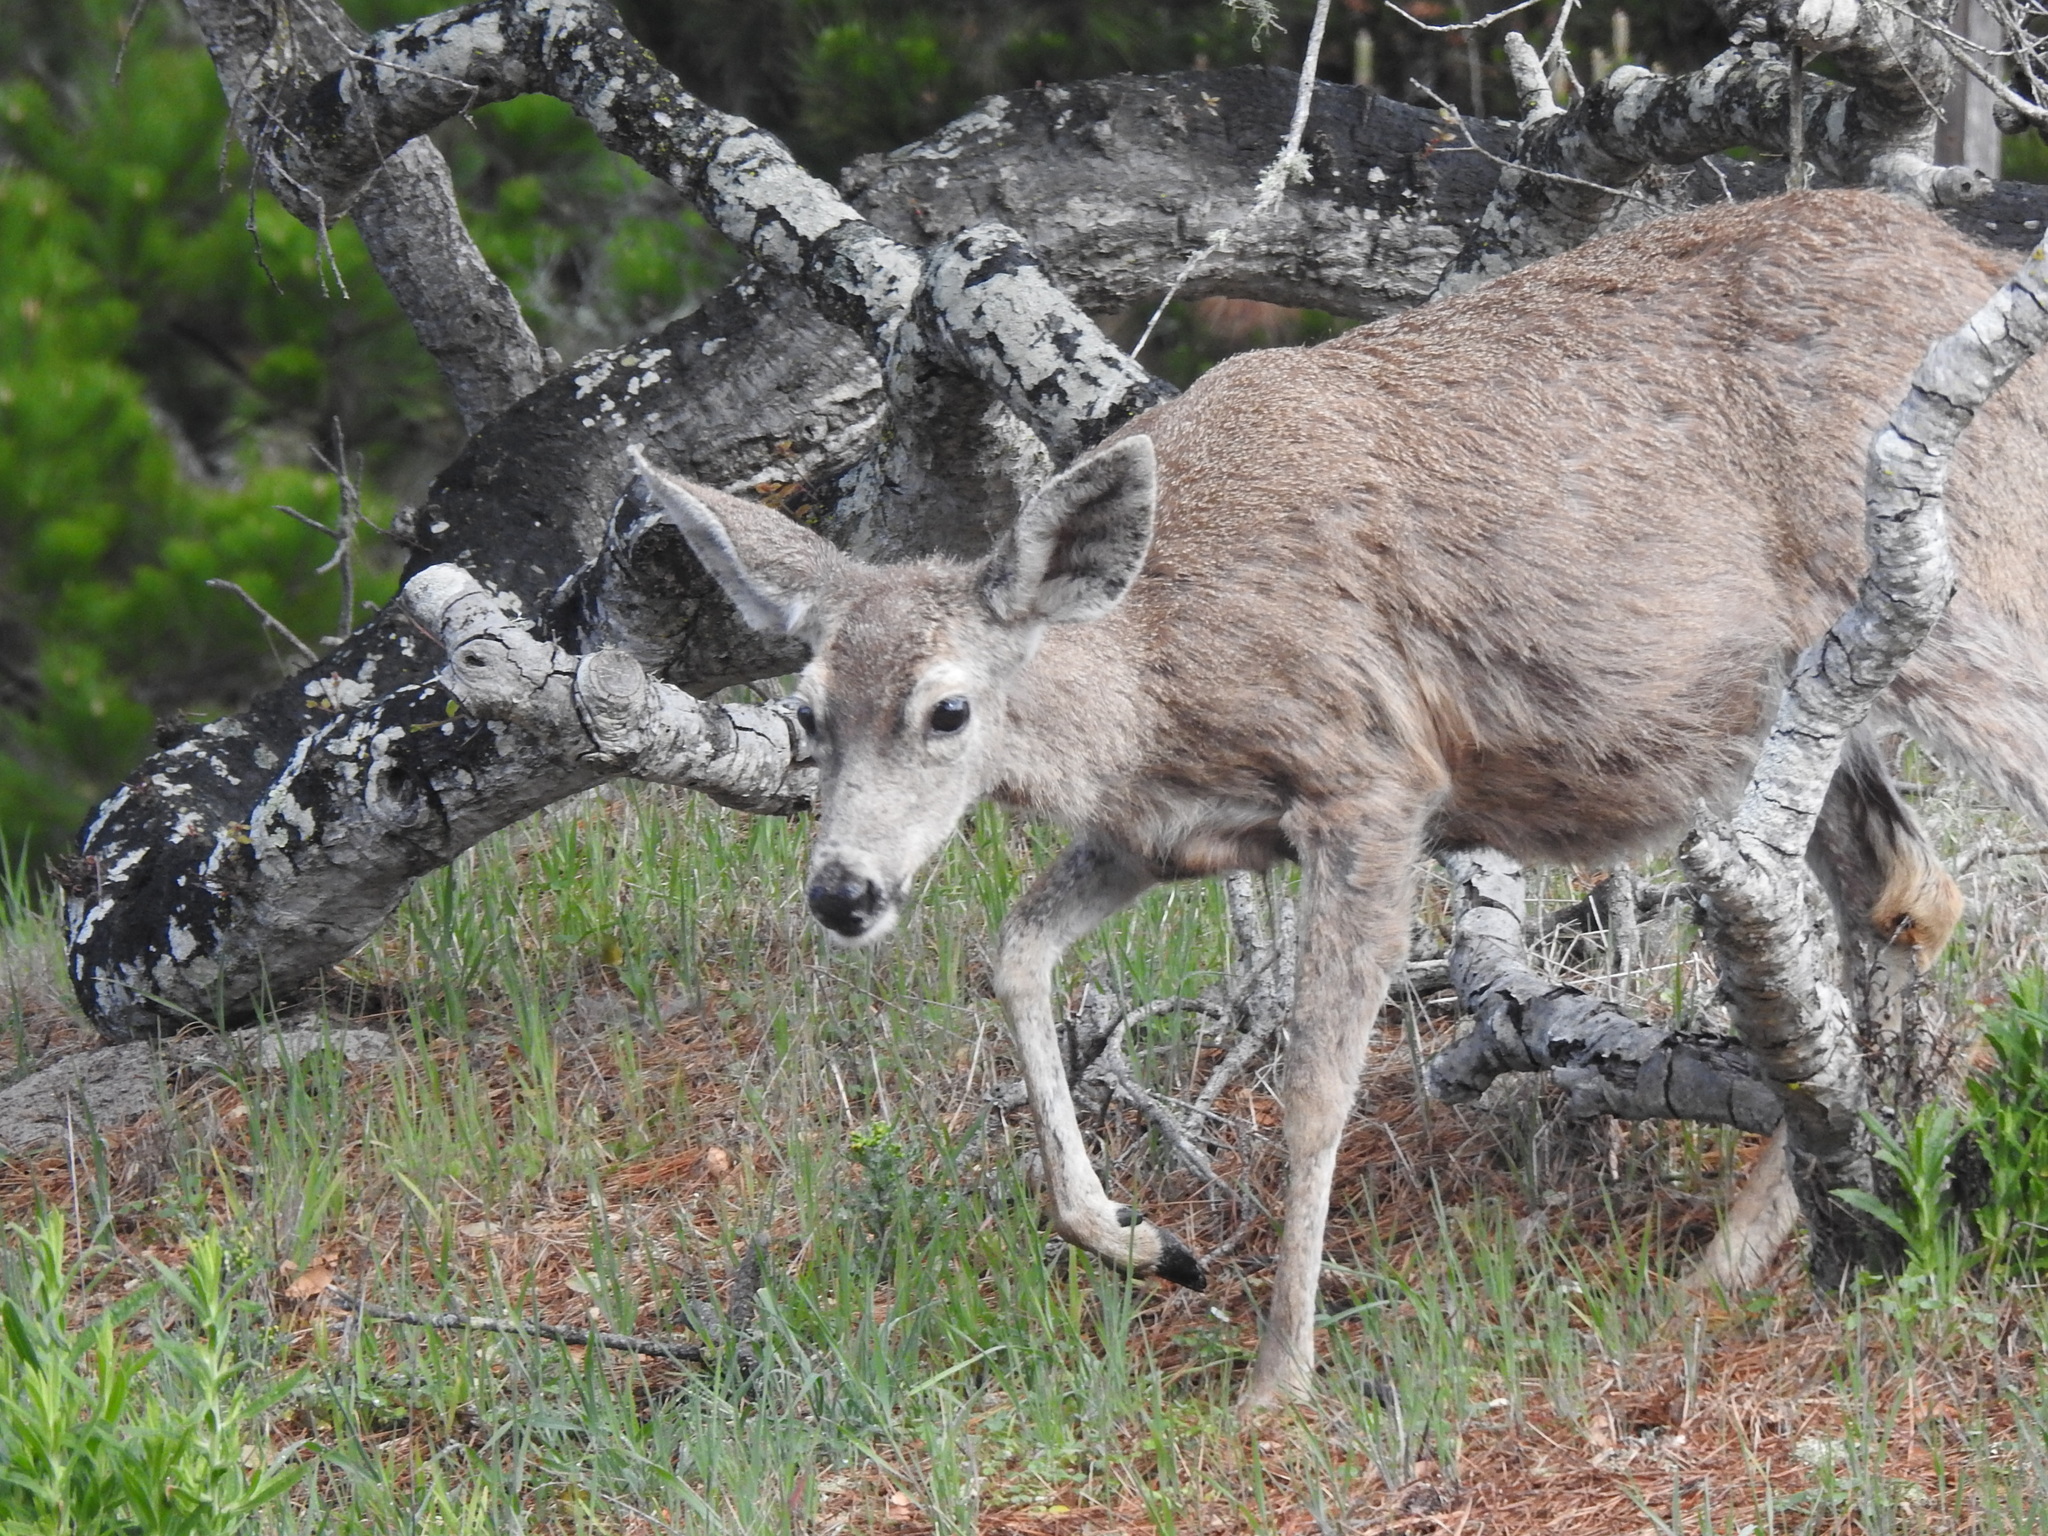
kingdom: Animalia
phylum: Chordata
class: Mammalia
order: Artiodactyla
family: Cervidae
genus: Odocoileus
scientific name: Odocoileus hemionus
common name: Mule deer
